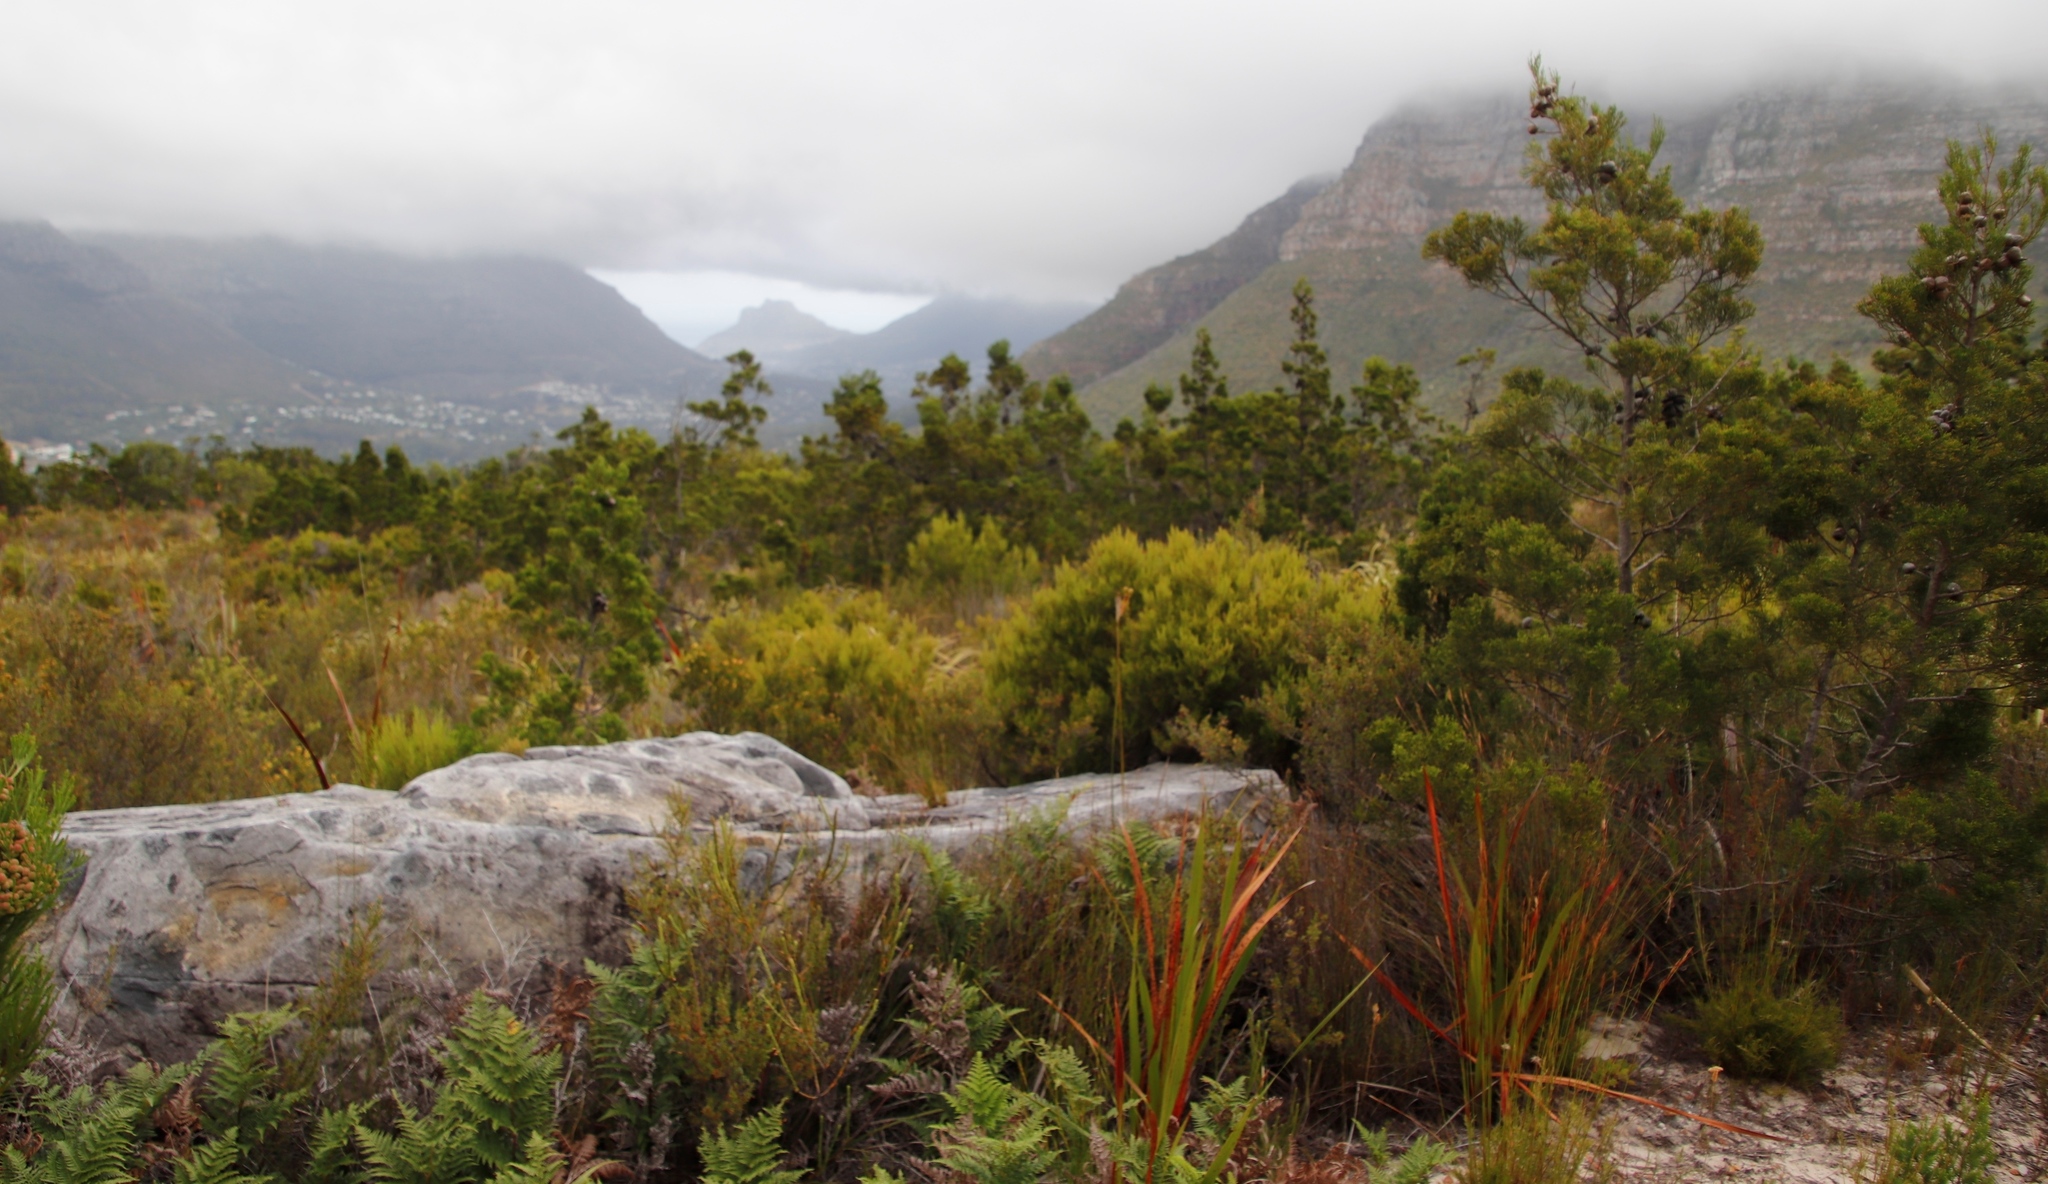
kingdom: Plantae
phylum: Tracheophyta
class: Pinopsida
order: Pinales
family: Cupressaceae
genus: Widdringtonia
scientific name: Widdringtonia nodiflora
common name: Cape cypress
